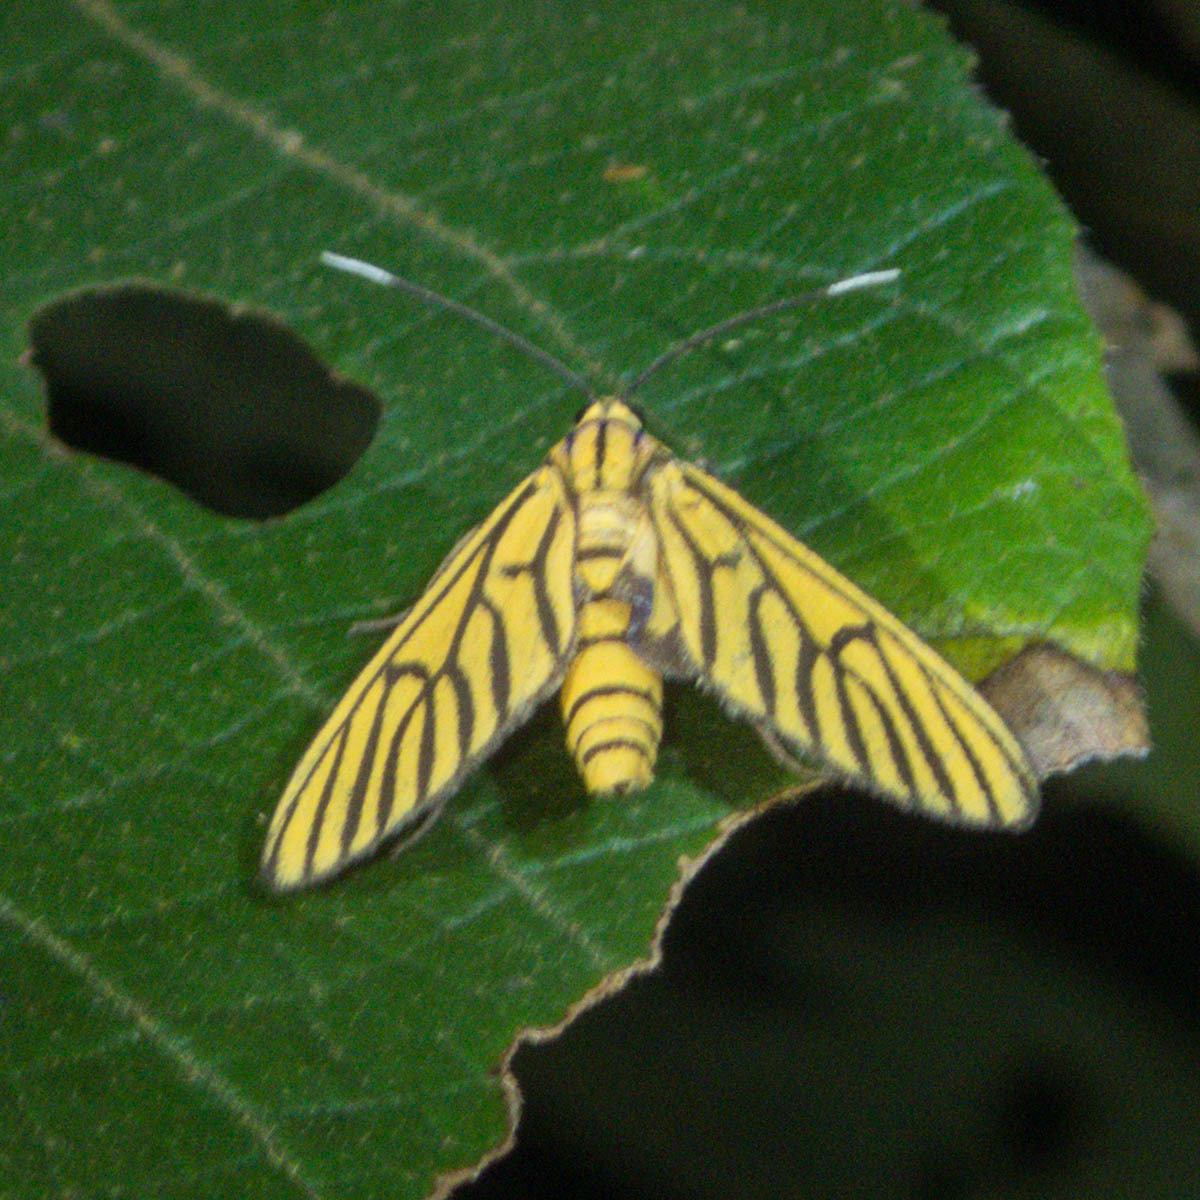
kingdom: Animalia
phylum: Arthropoda
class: Insecta
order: Lepidoptera
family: Erebidae
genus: Amata
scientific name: Amata tigrina
